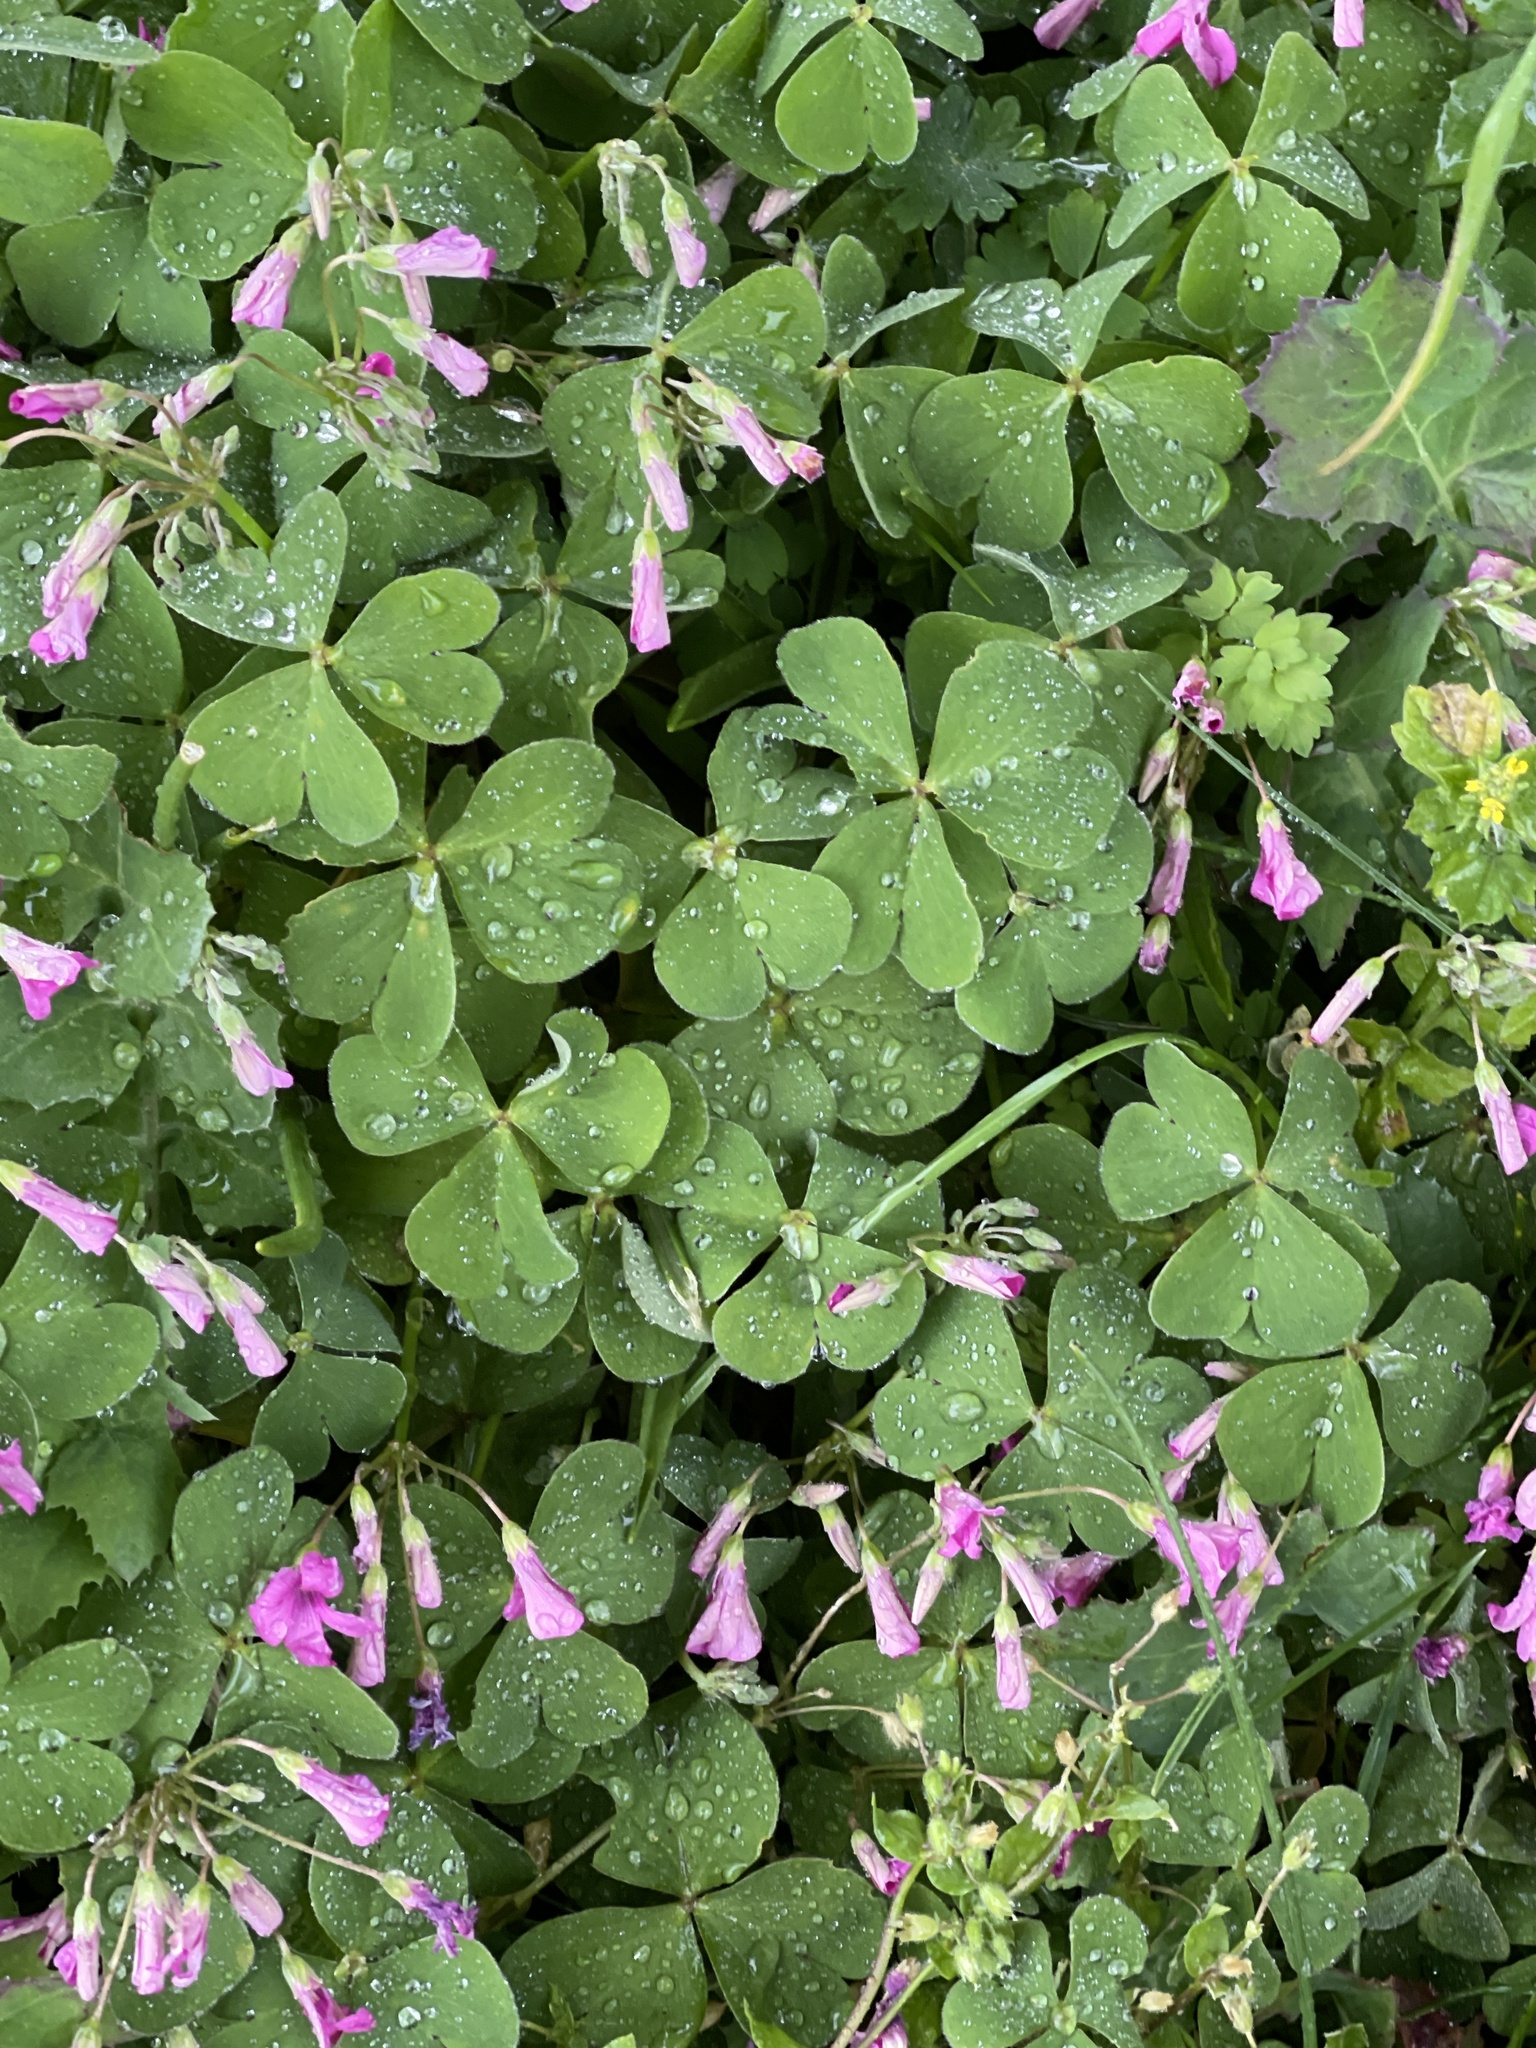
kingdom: Plantae
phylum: Tracheophyta
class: Magnoliopsida
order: Oxalidales
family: Oxalidaceae
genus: Oxalis
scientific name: Oxalis articulata
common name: Pink-sorrel
